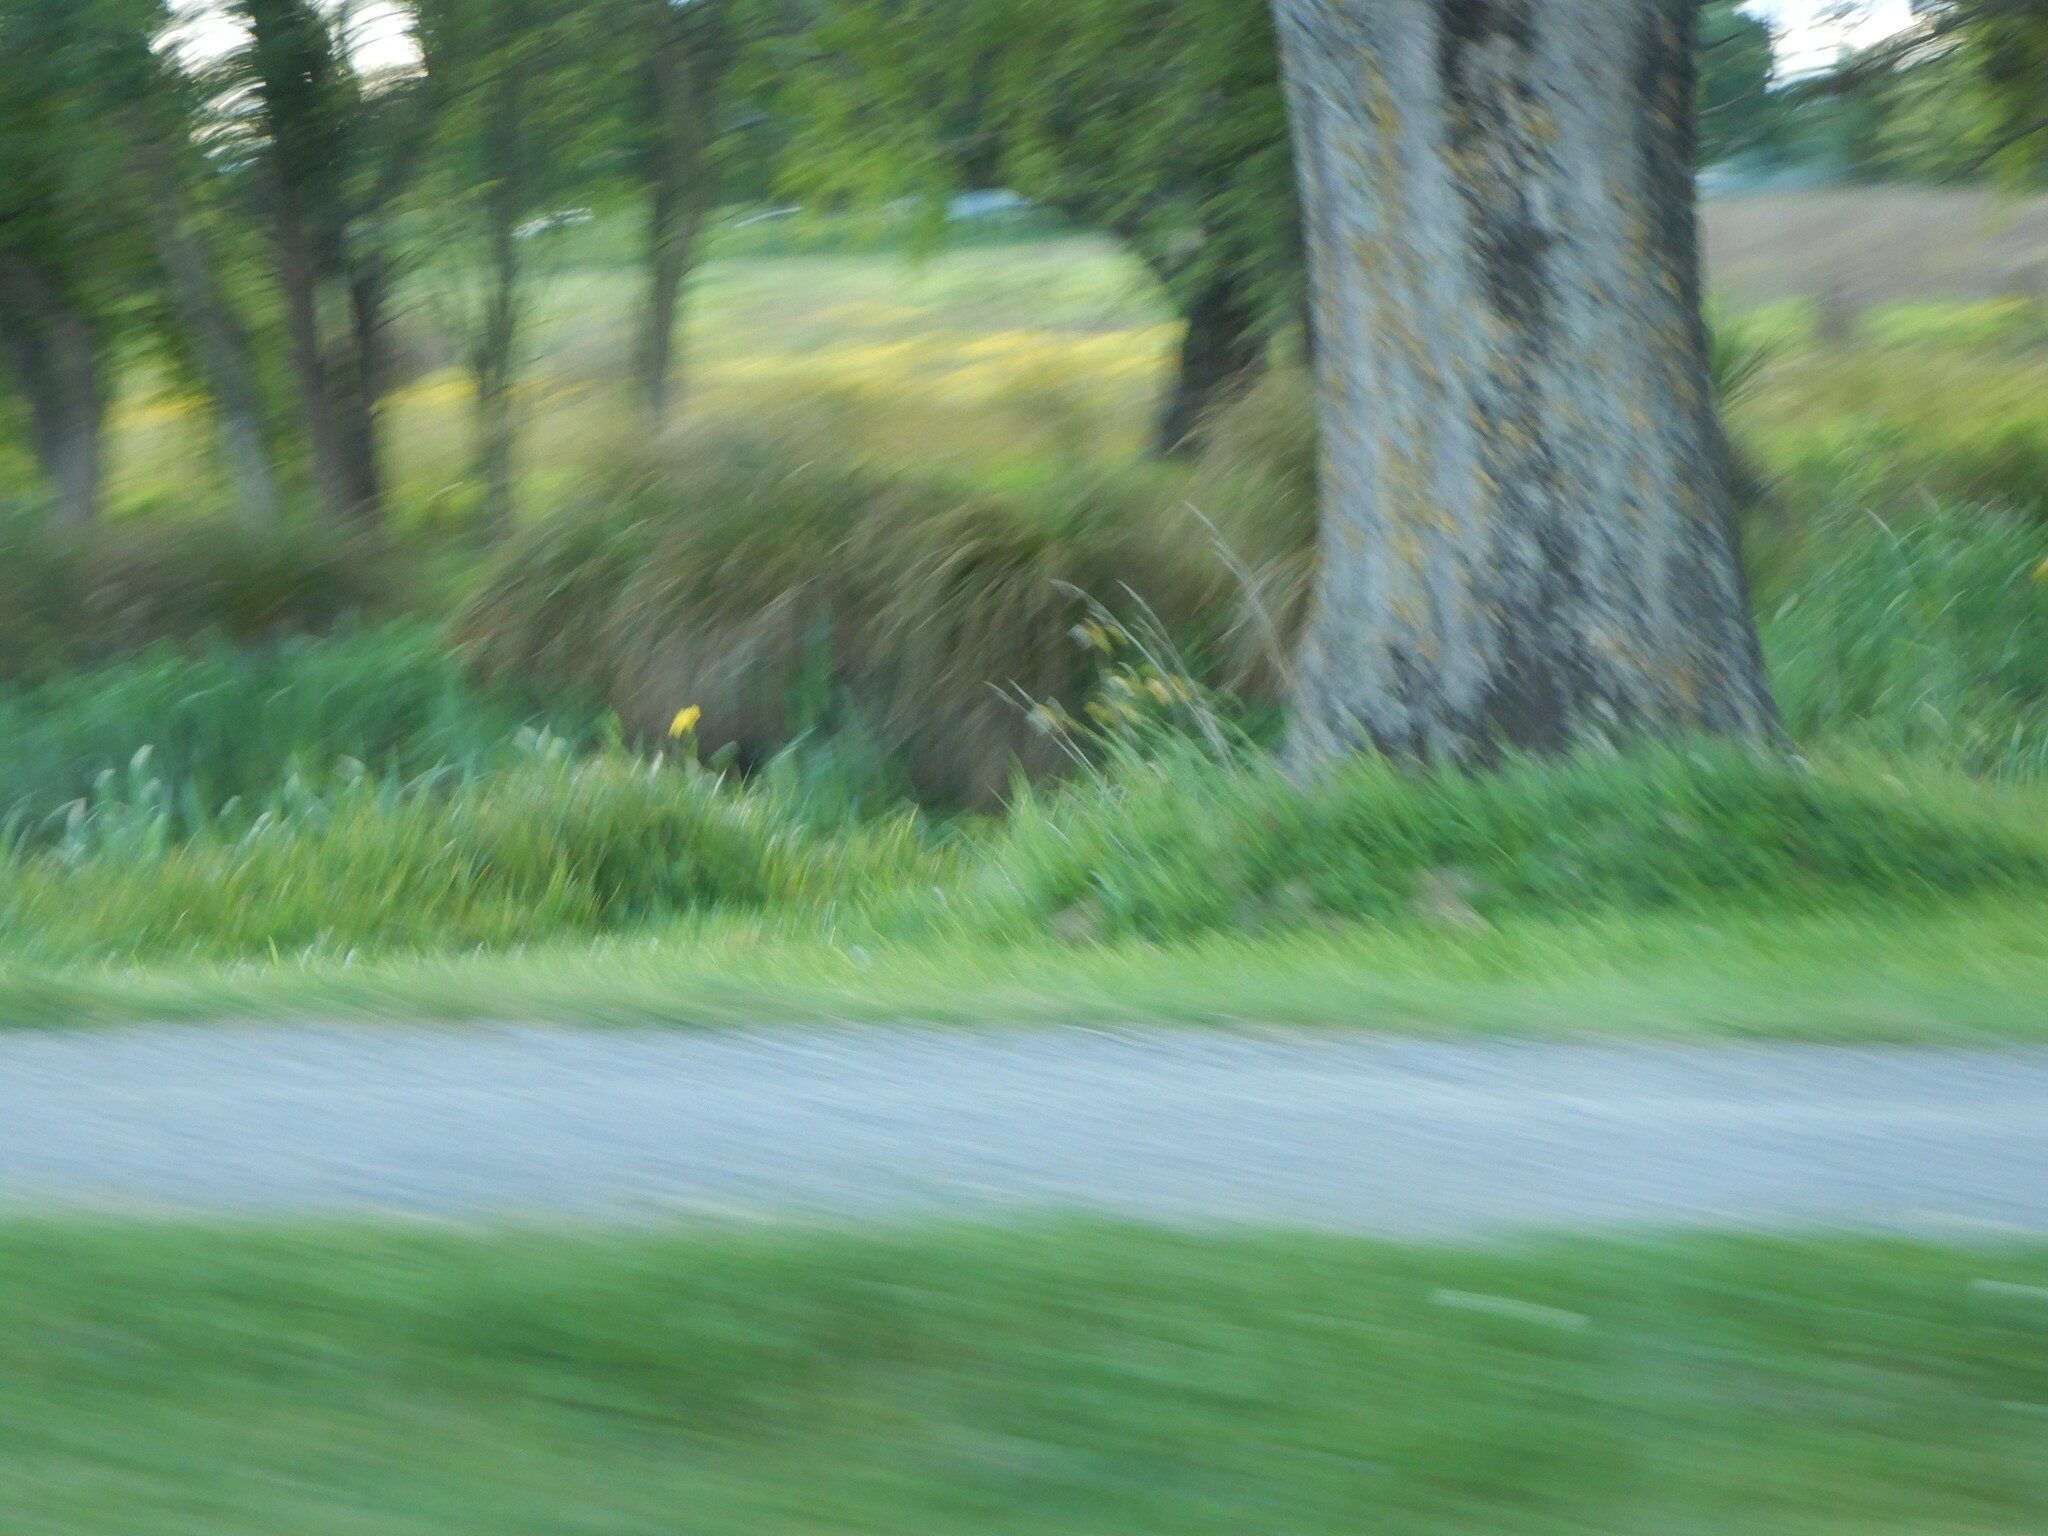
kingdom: Plantae
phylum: Tracheophyta
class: Liliopsida
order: Asparagales
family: Iridaceae
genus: Iris
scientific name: Iris pseudacorus
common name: Yellow flag
